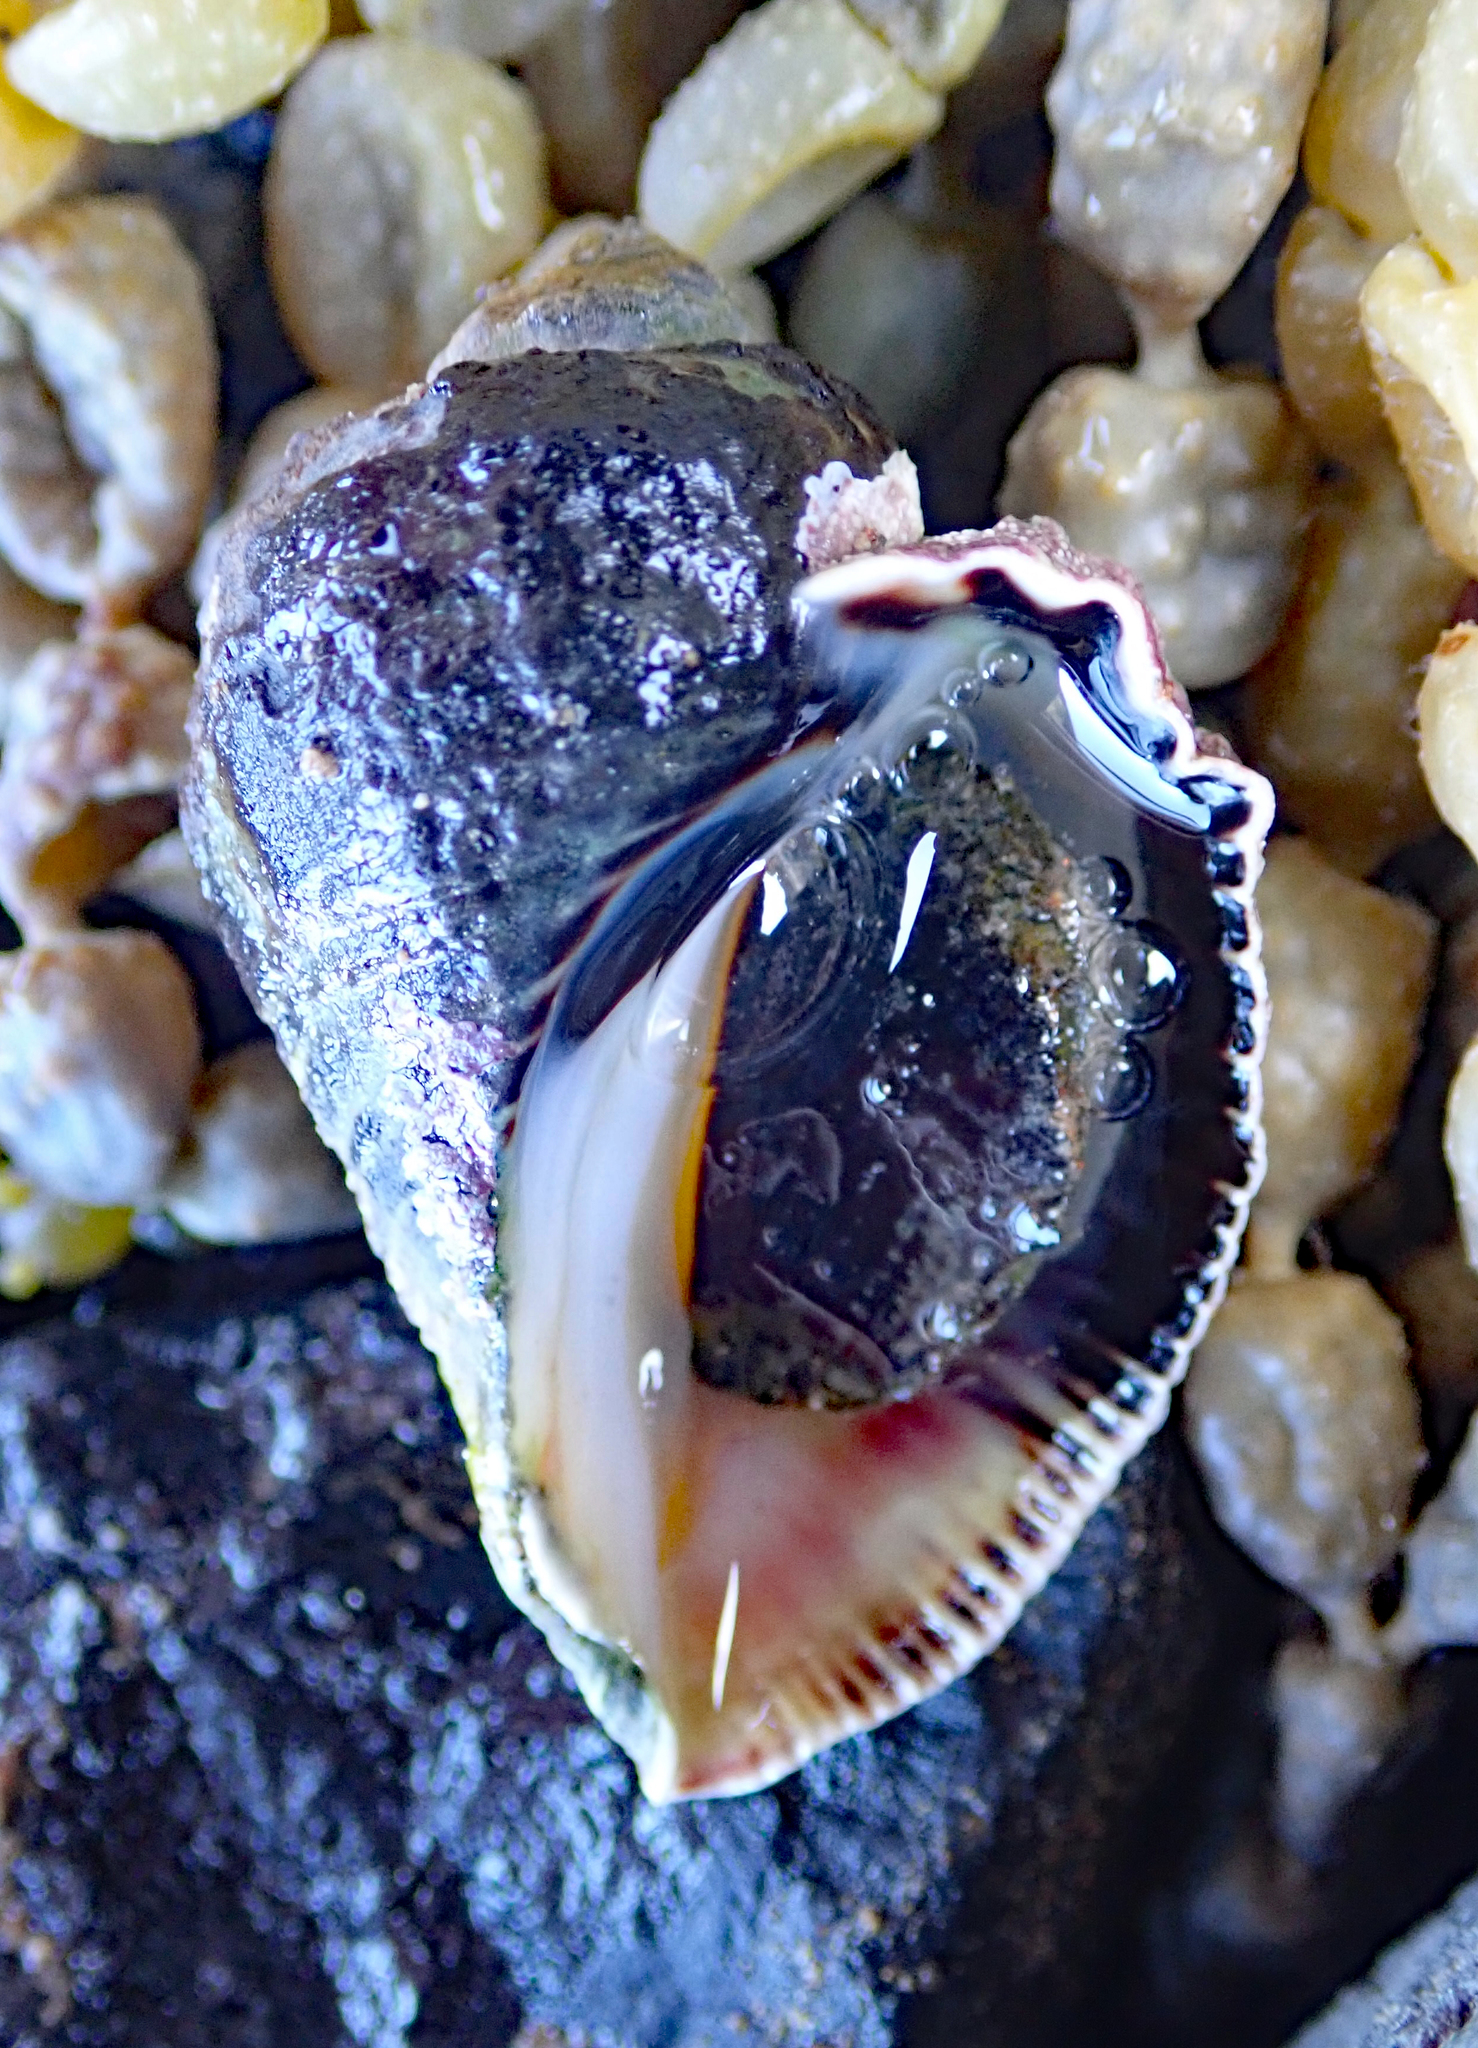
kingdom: Animalia
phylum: Mollusca
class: Gastropoda
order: Neogastropoda
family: Muricidae
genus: Haustrum
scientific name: Haustrum haustorium
